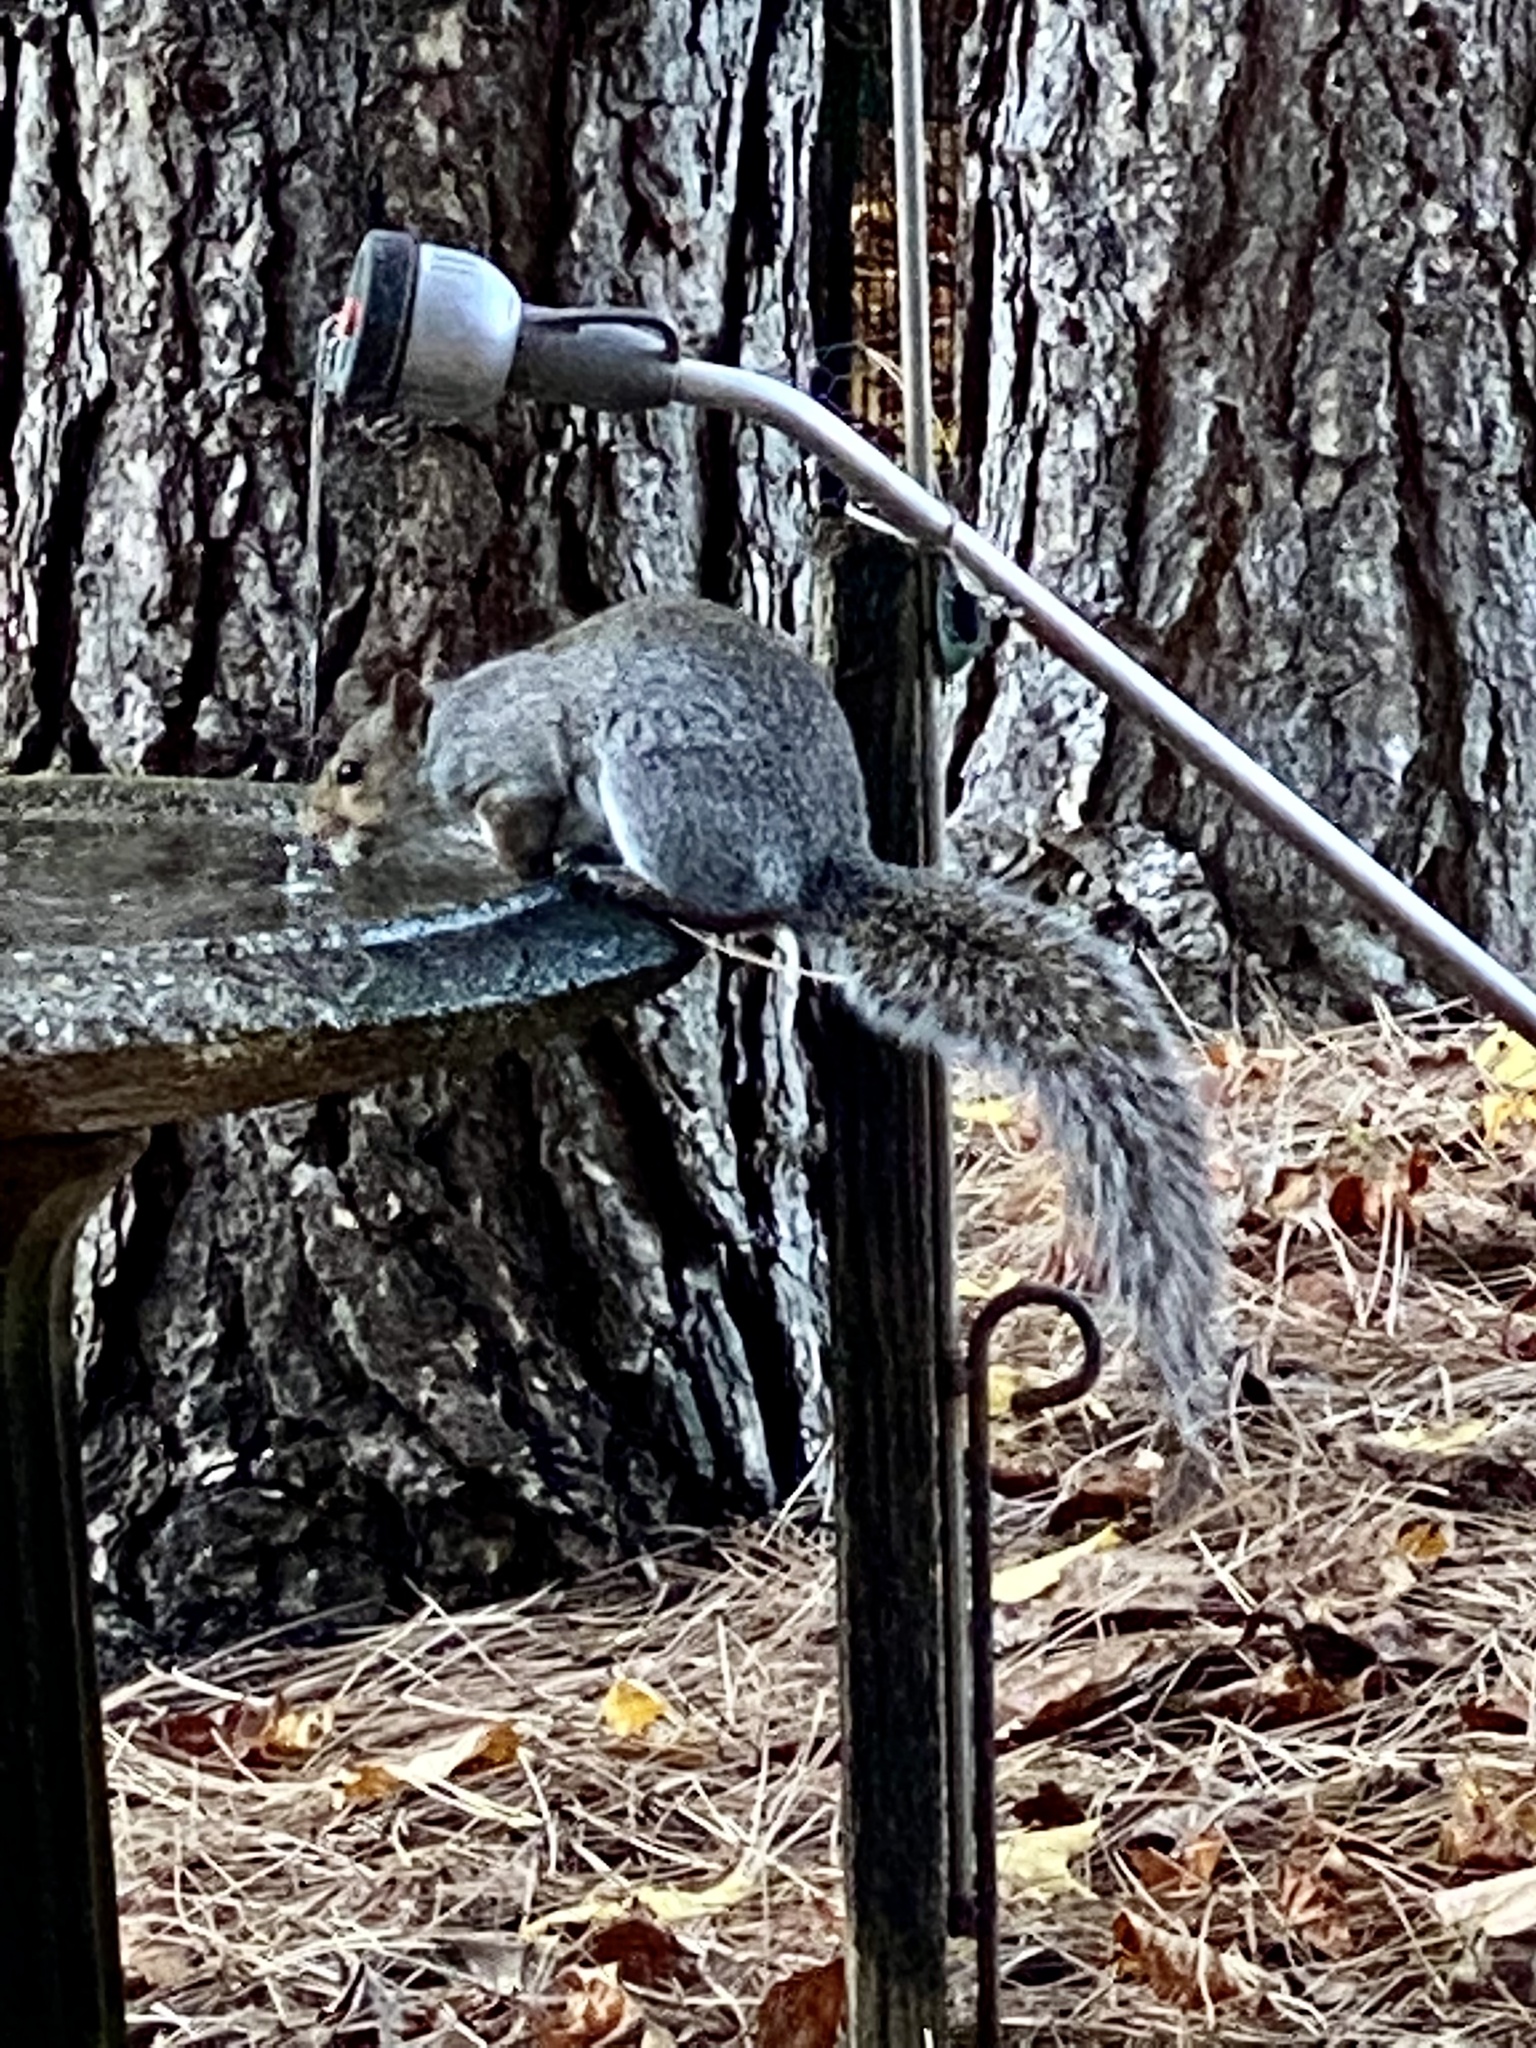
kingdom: Animalia
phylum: Chordata
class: Mammalia
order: Rodentia
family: Sciuridae
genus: Sciurus
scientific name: Sciurus carolinensis
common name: Eastern gray squirrel
